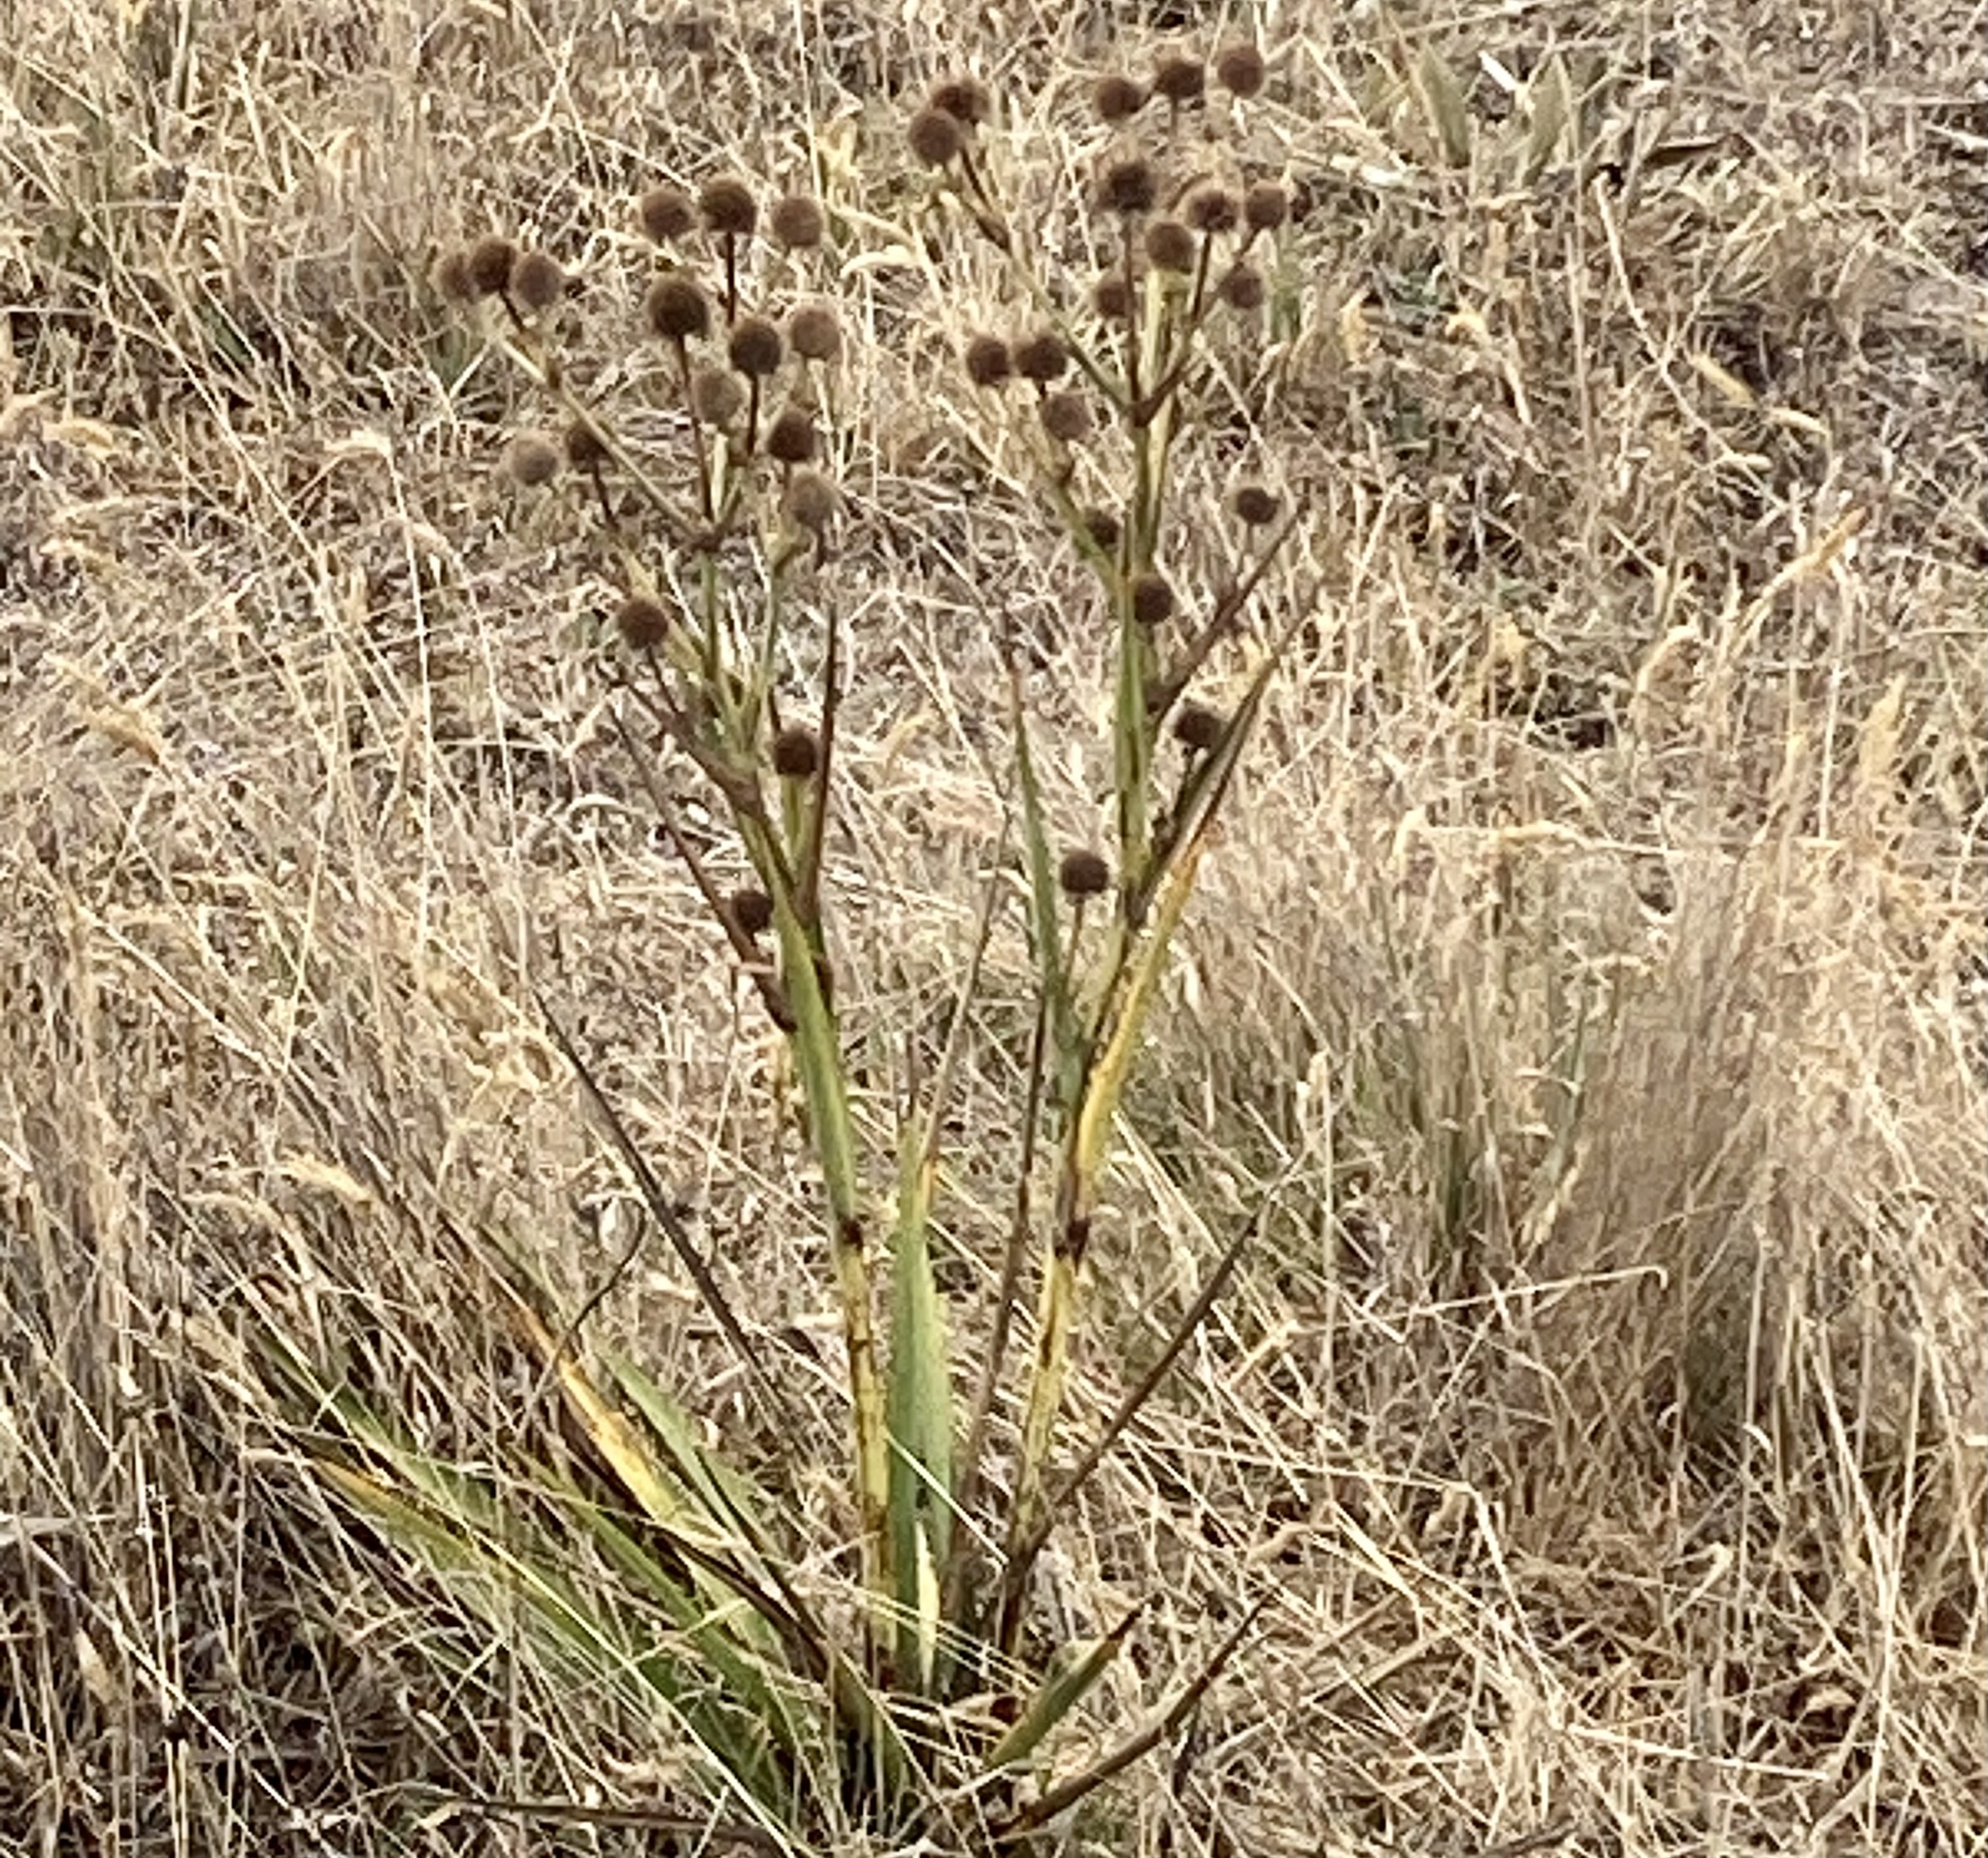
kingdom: Plantae
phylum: Tracheophyta
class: Magnoliopsida
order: Apiales
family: Apiaceae
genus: Eryngium
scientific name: Eryngium humboldtii
